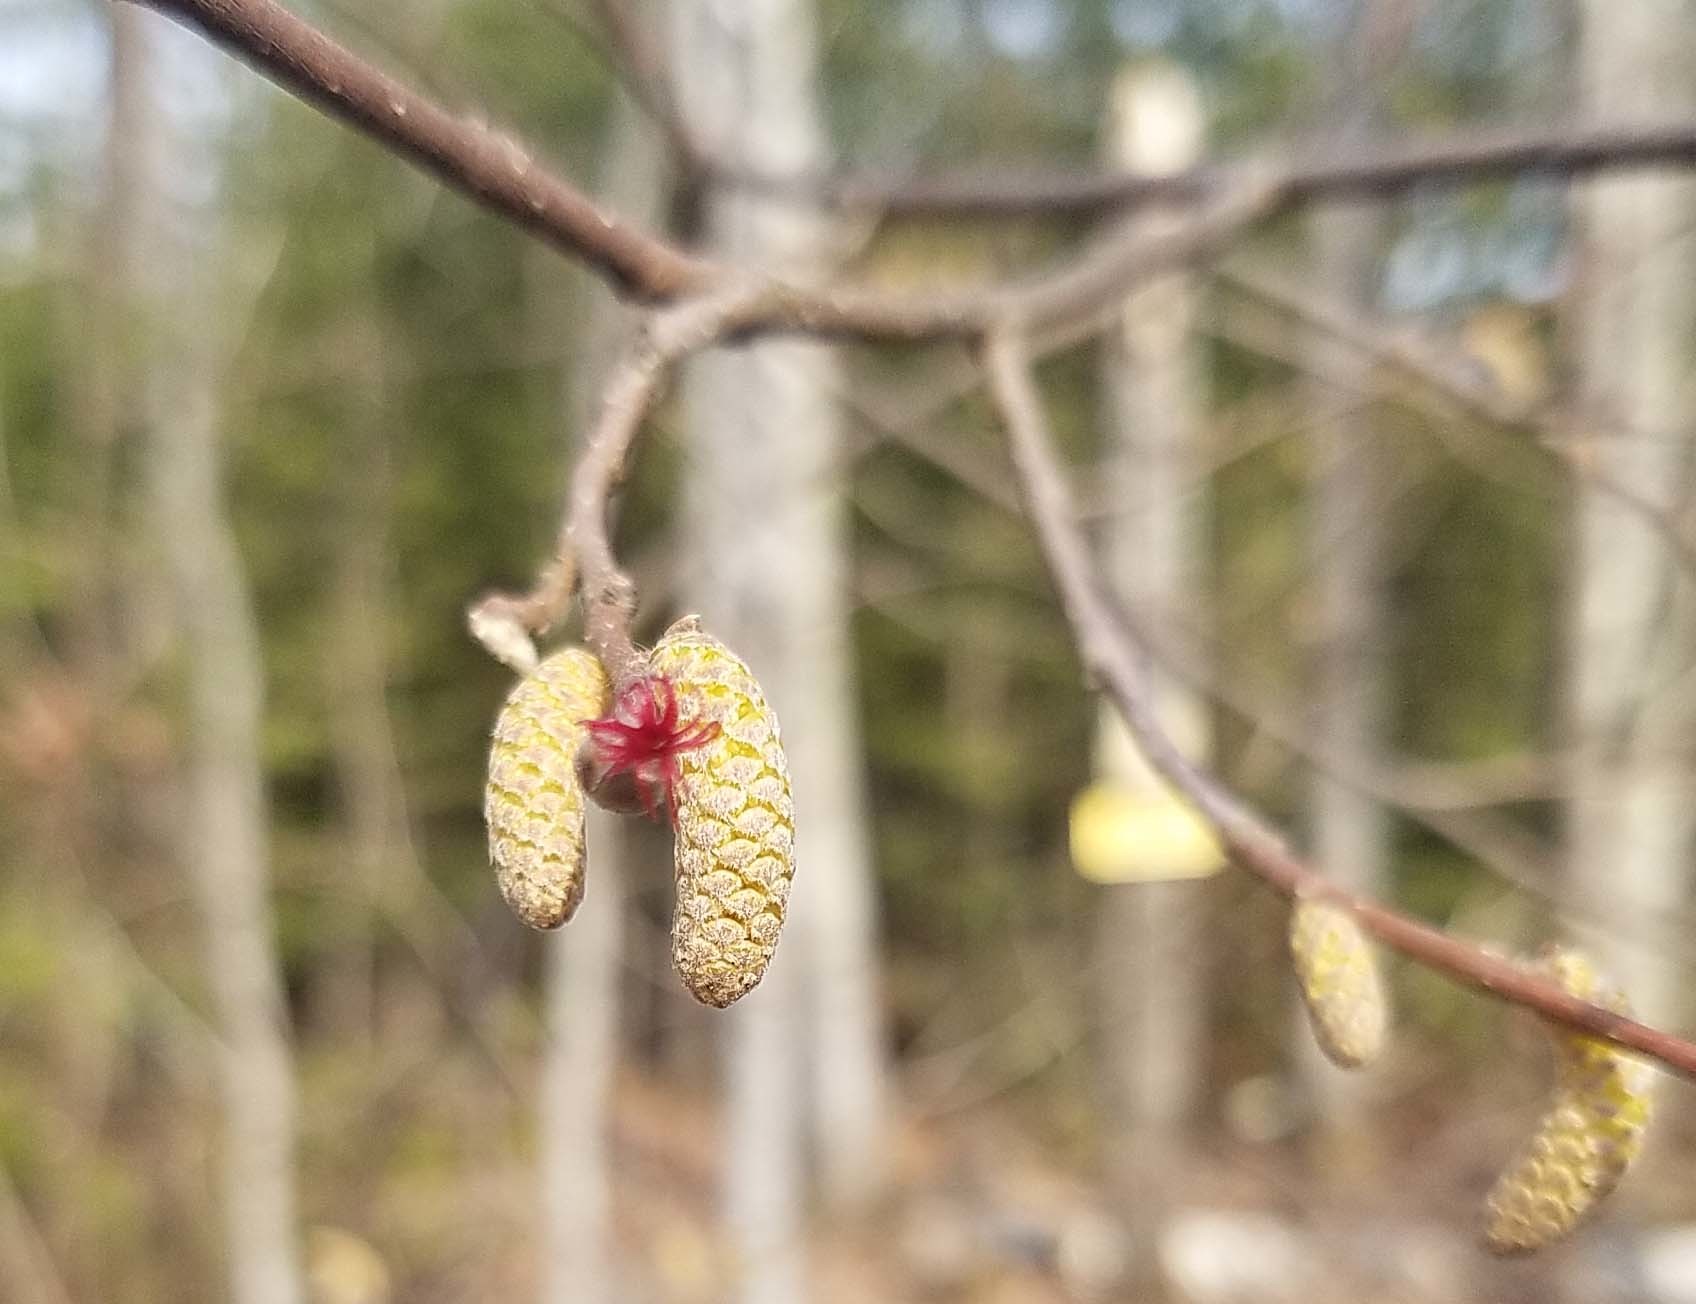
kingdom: Plantae
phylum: Tracheophyta
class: Magnoliopsida
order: Fagales
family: Betulaceae
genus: Corylus
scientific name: Corylus cornuta
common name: Beaked hazel
